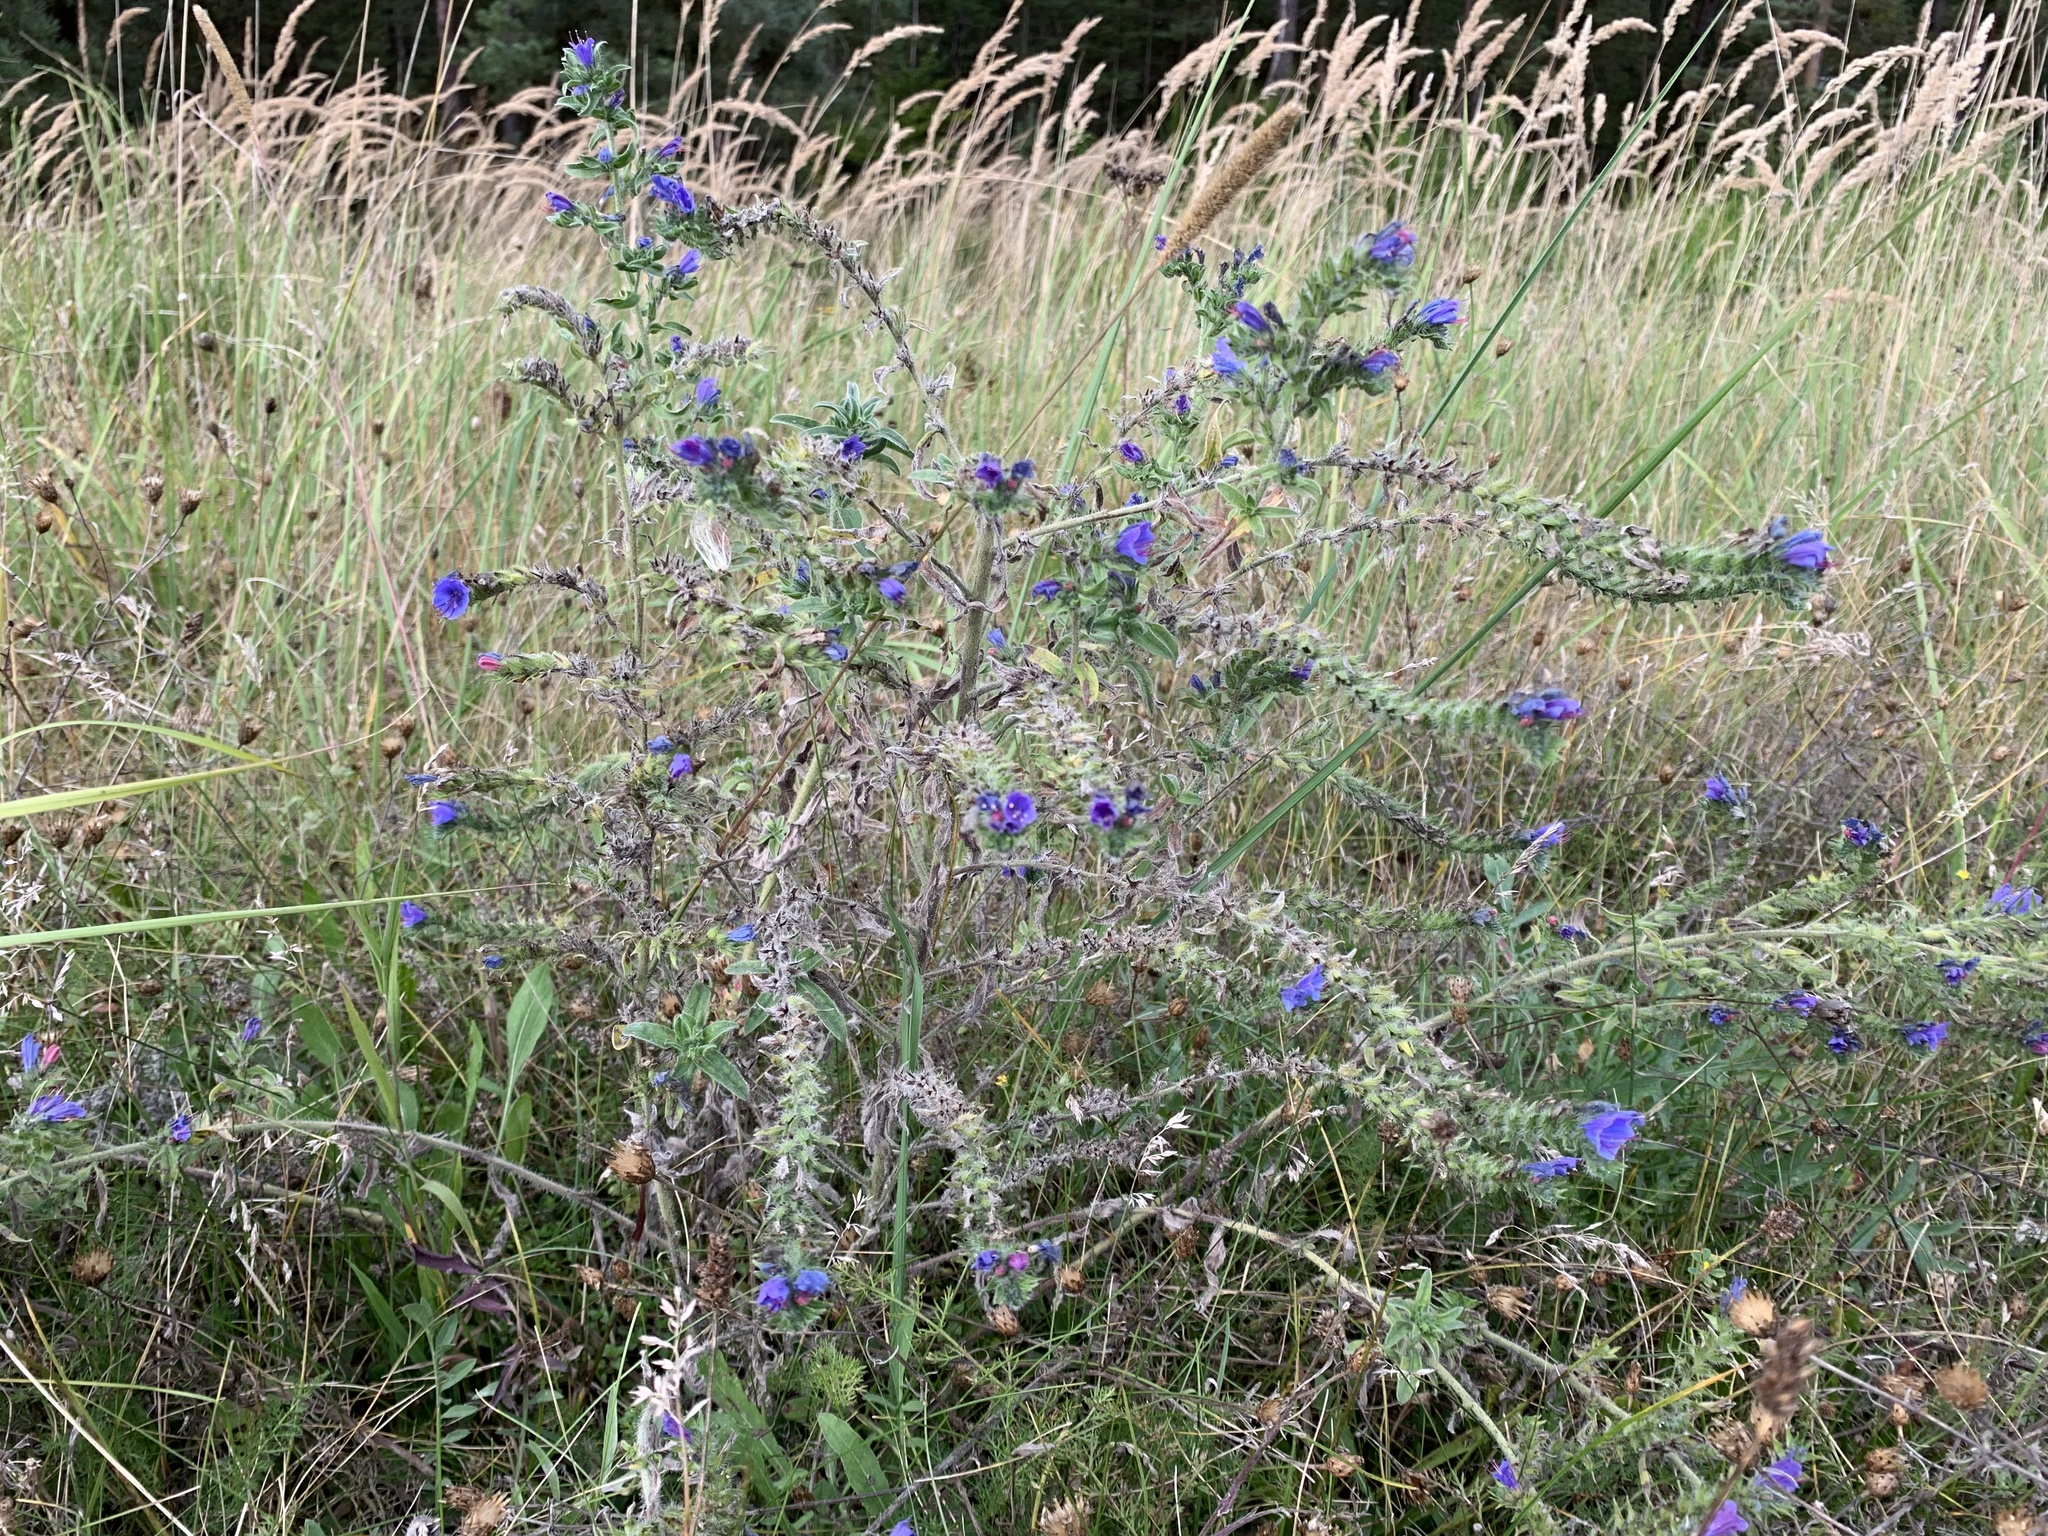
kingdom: Plantae
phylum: Tracheophyta
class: Magnoliopsida
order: Boraginales
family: Boraginaceae
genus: Echium
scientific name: Echium vulgare
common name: Common viper's bugloss
